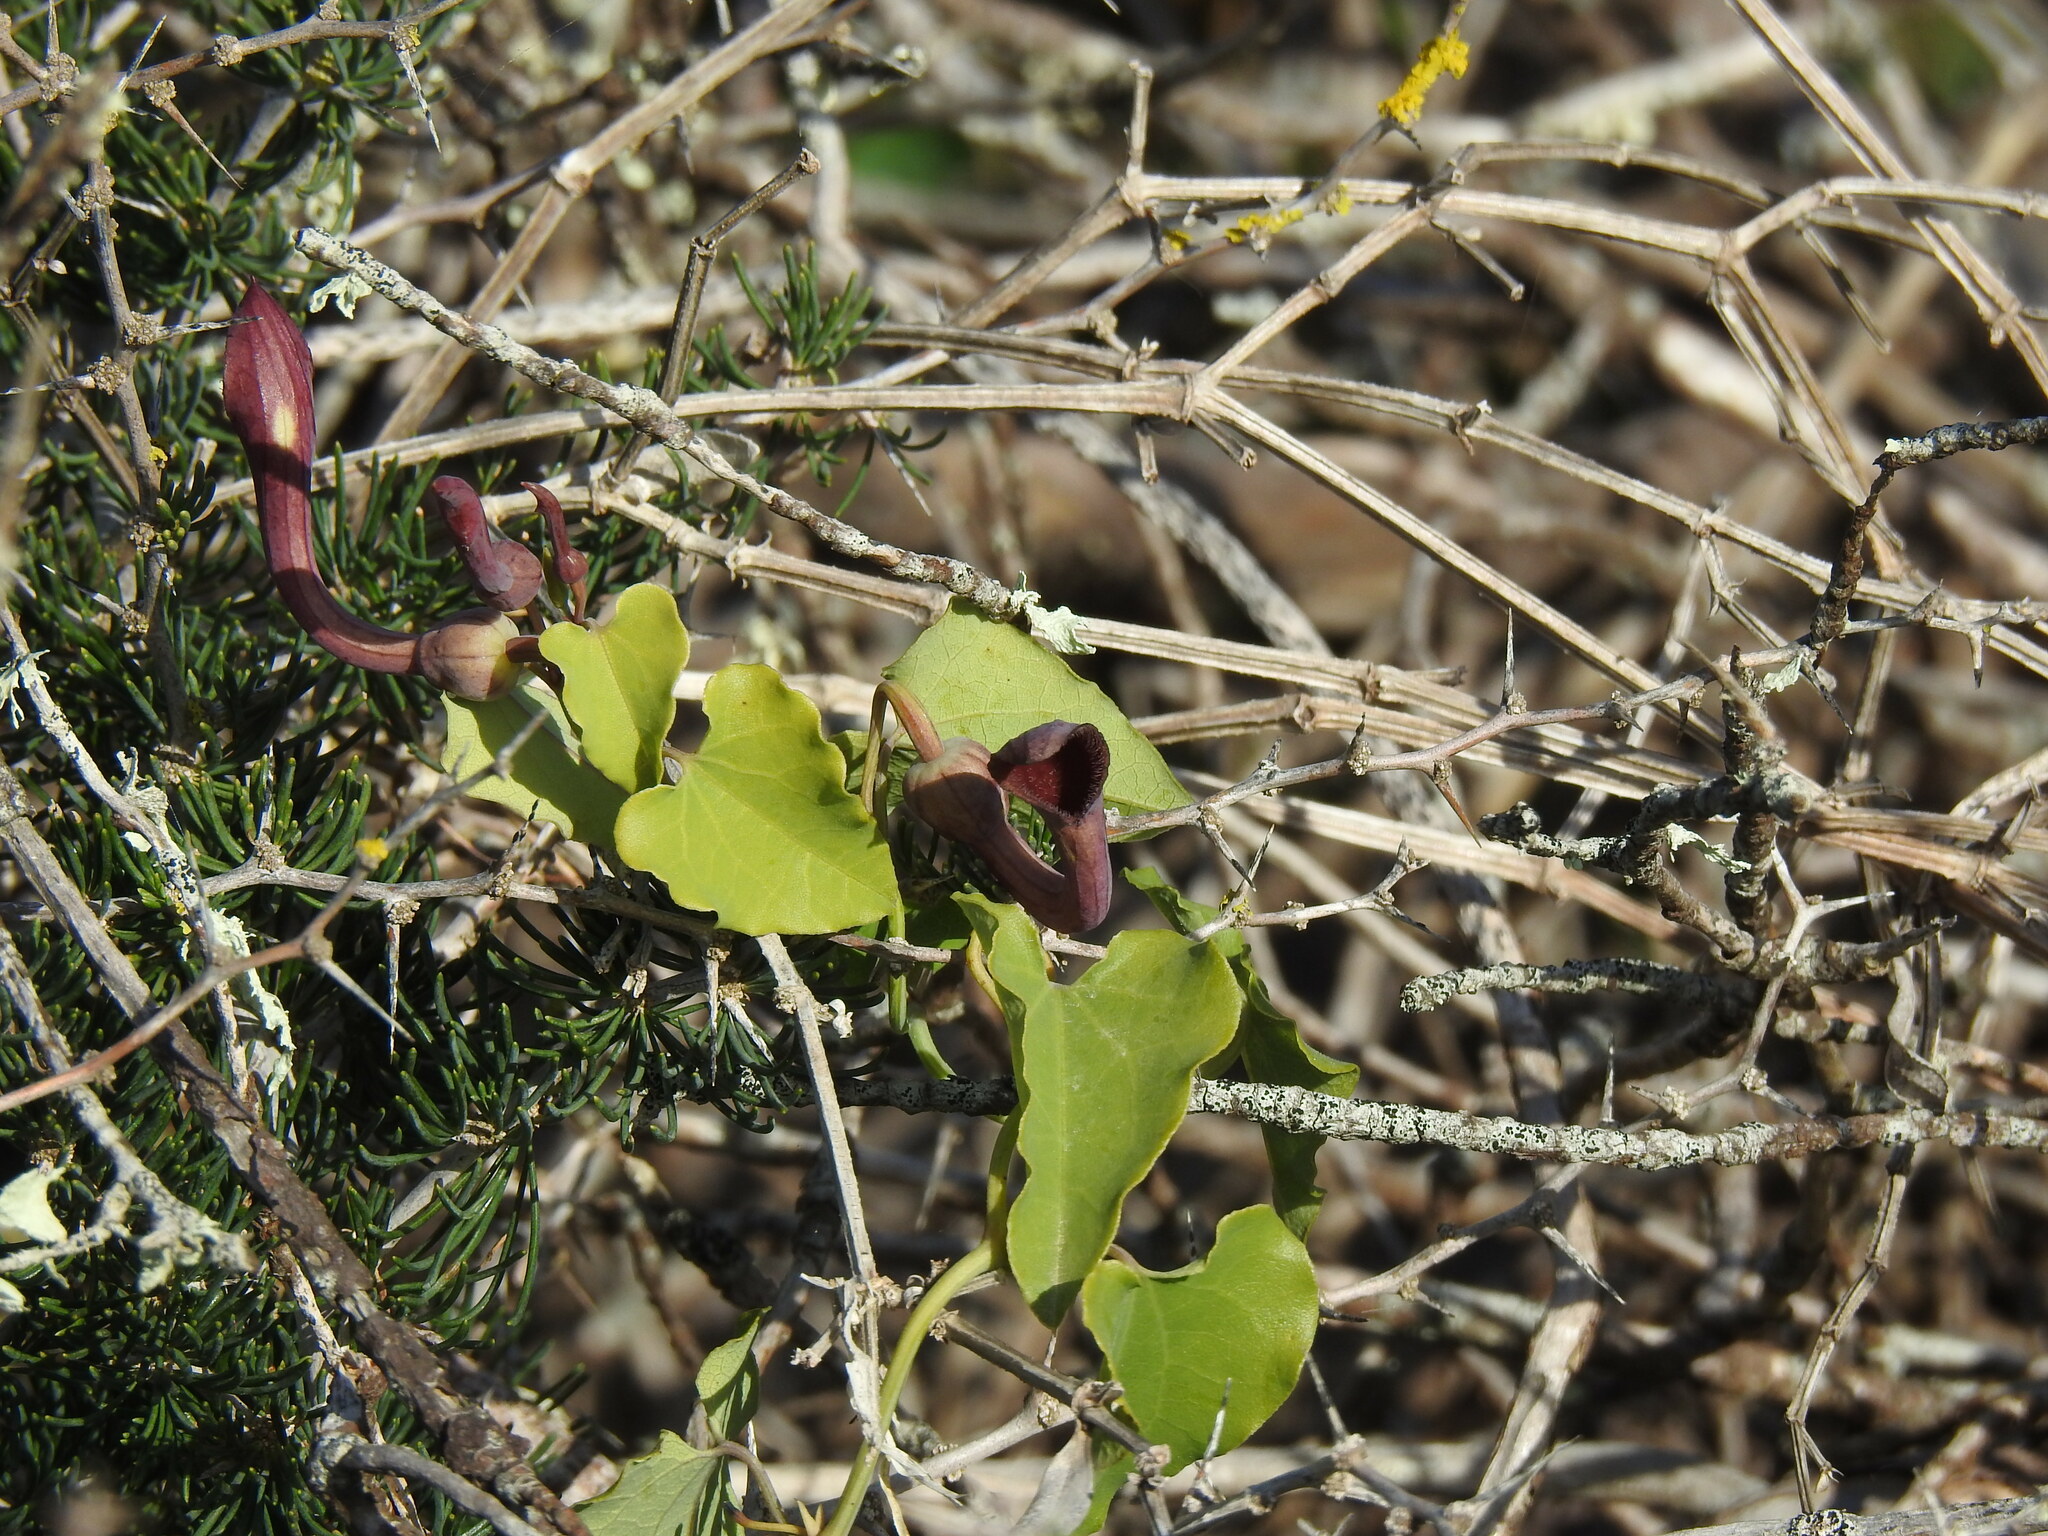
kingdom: Plantae
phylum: Tracheophyta
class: Magnoliopsida
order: Piperales
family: Aristolochiaceae
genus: Aristolochia
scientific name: Aristolochia baetica
